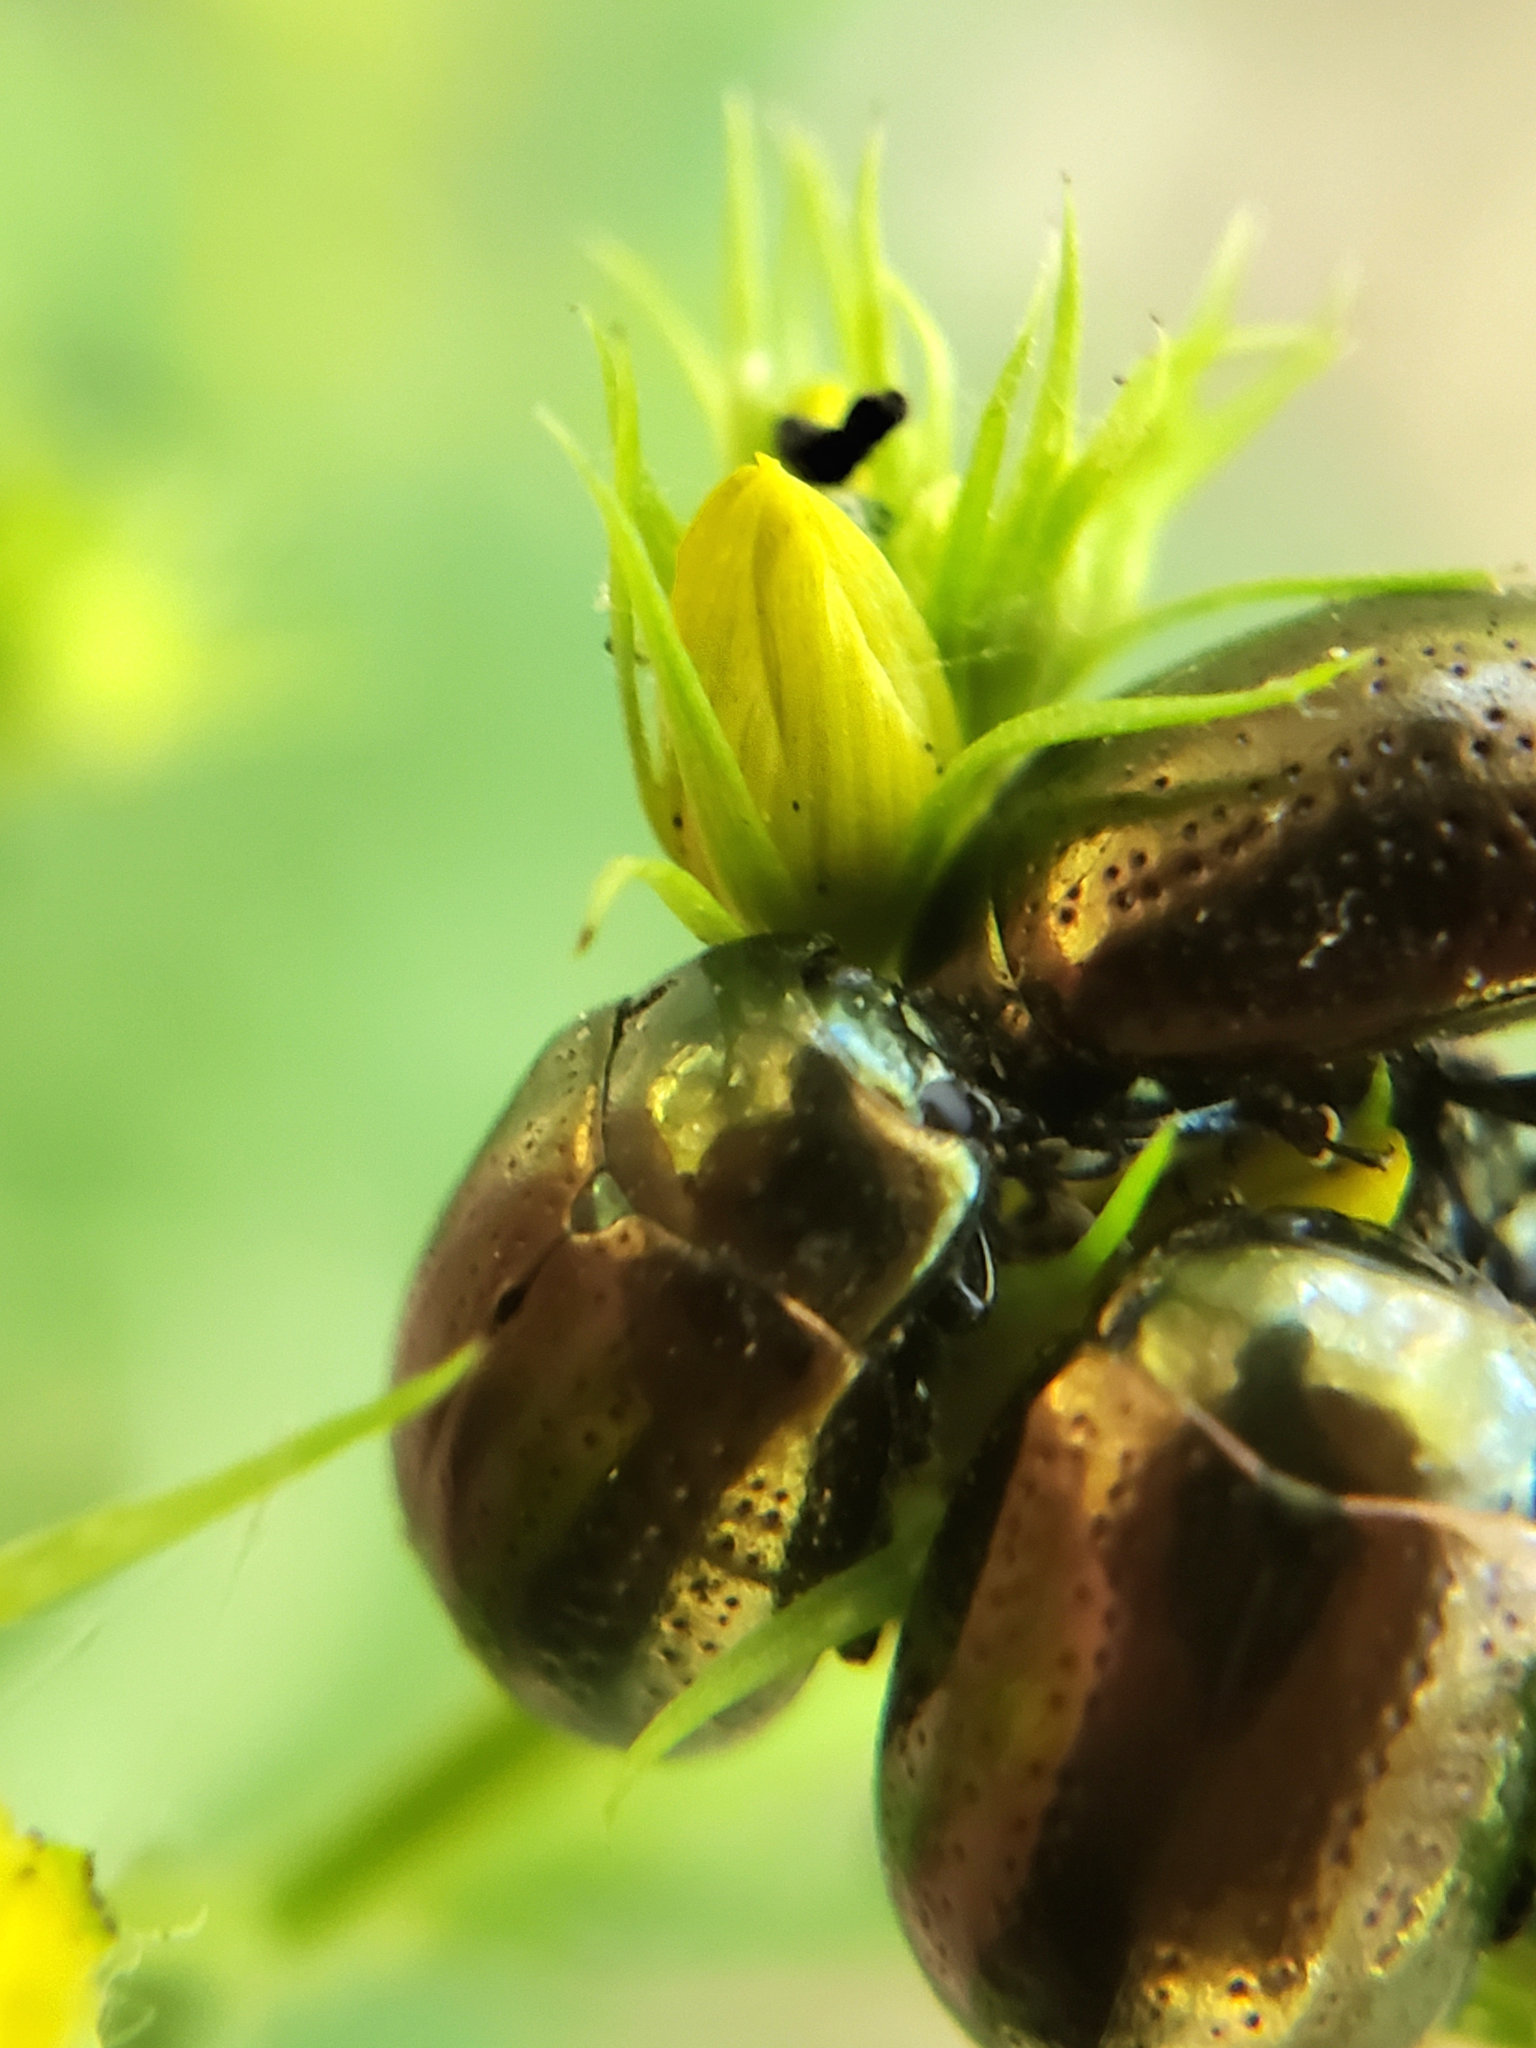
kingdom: Animalia
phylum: Arthropoda
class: Insecta
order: Coleoptera
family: Chrysomelidae
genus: Chrysolina
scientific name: Chrysolina hyperici
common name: St. johnswort beetle
